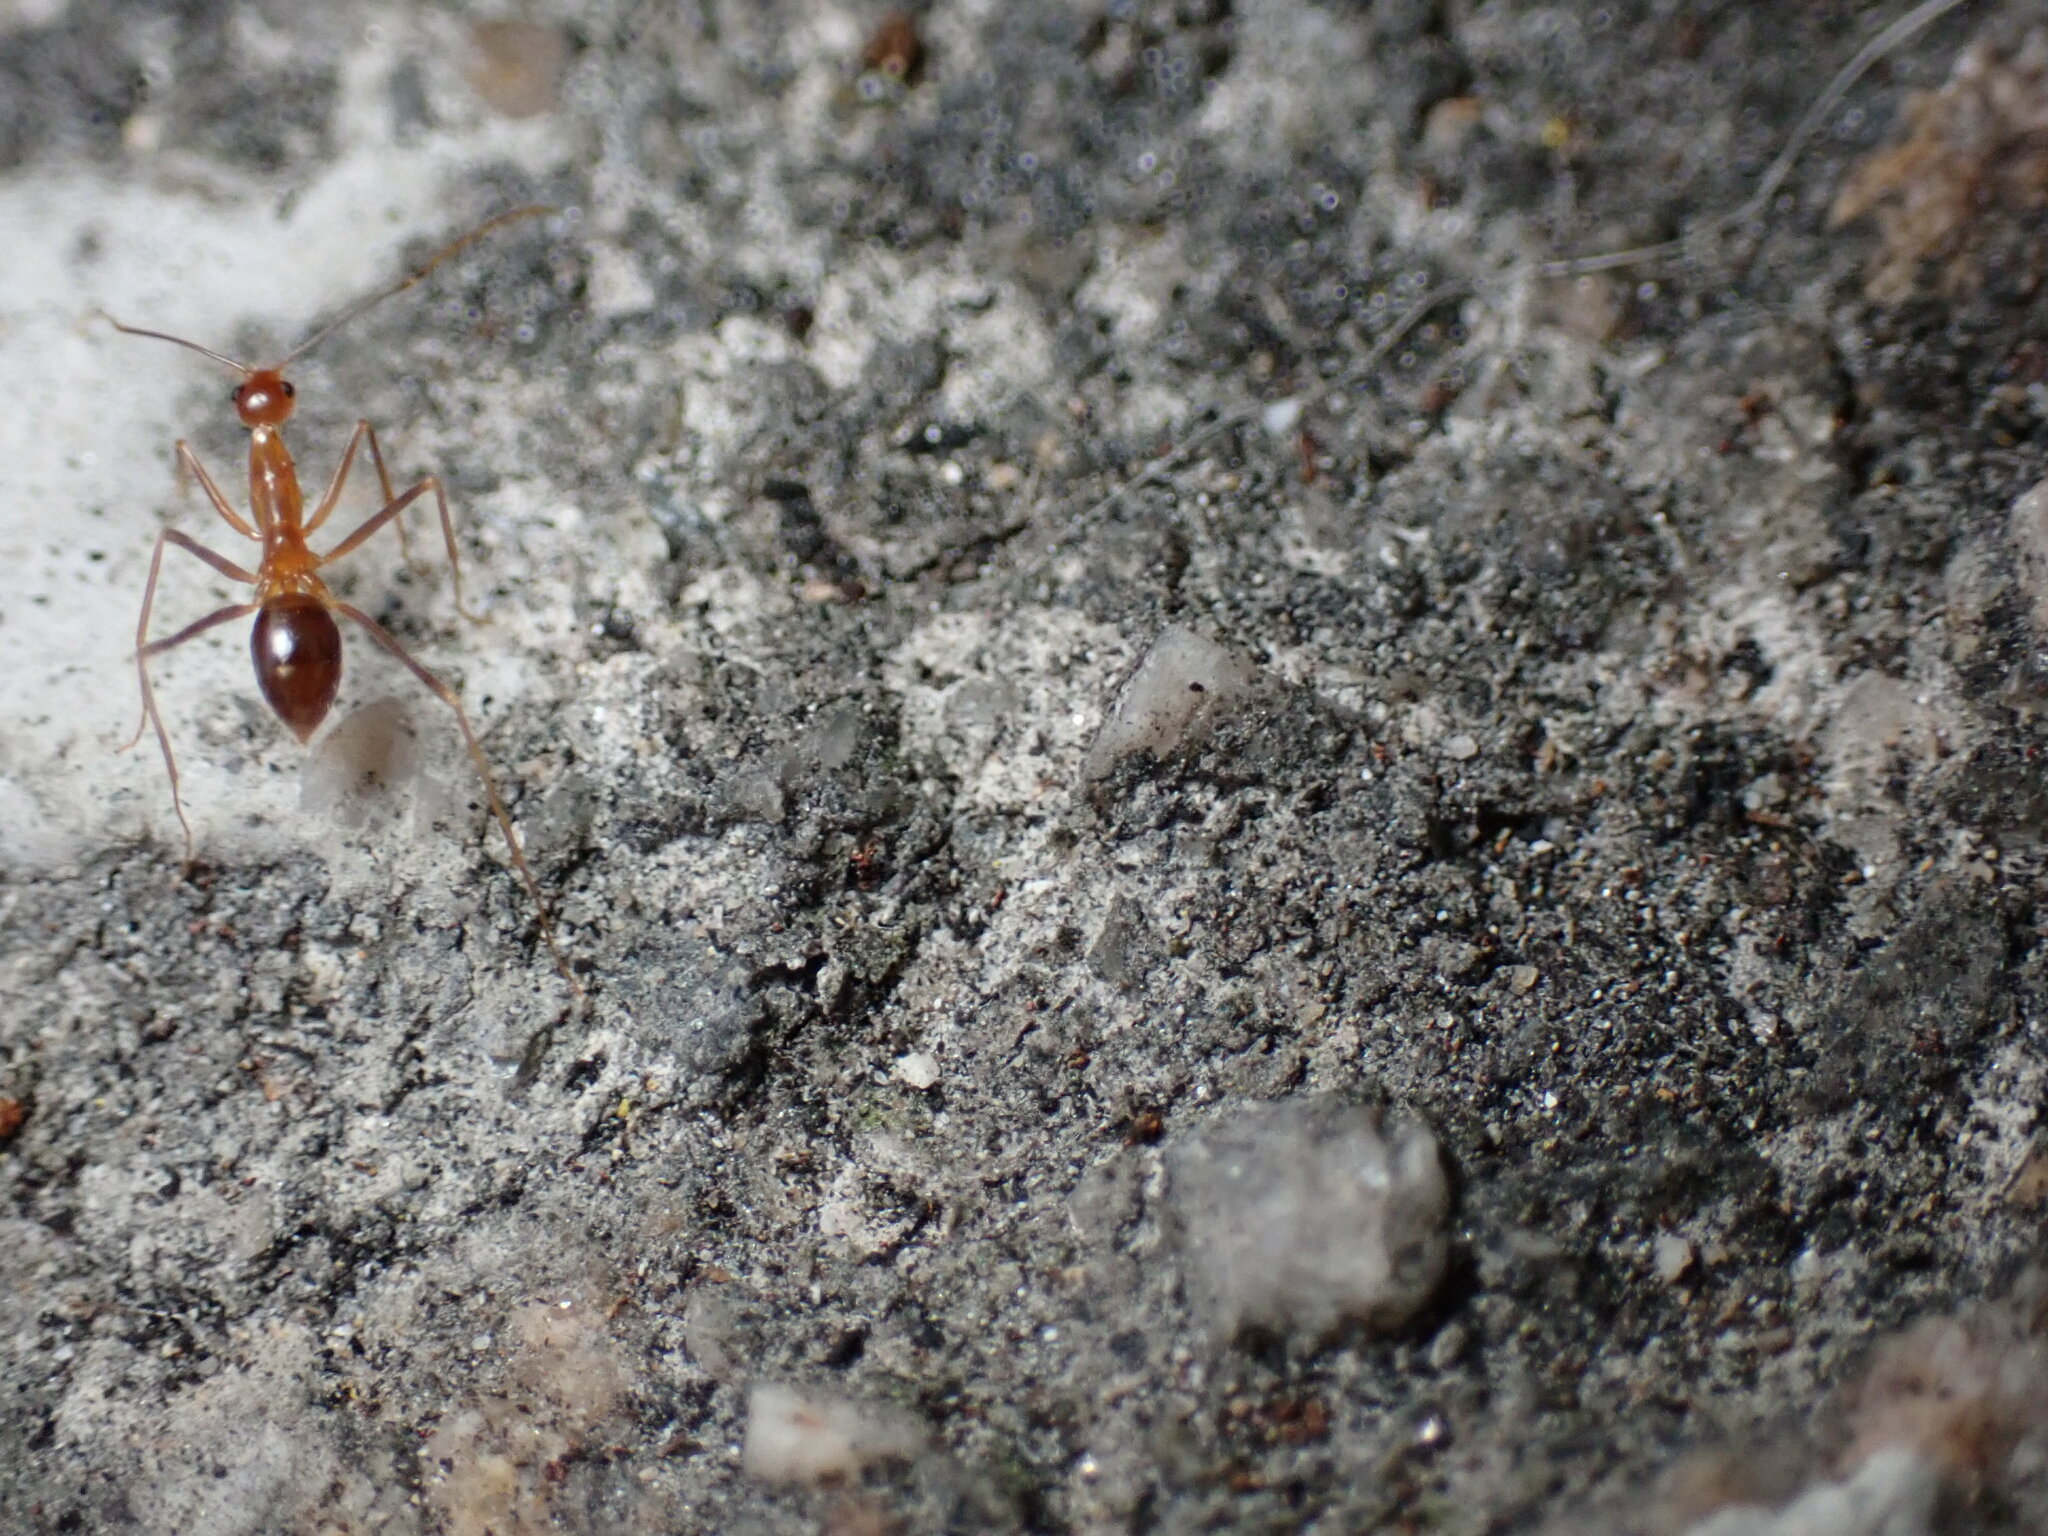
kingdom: Animalia
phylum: Arthropoda
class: Insecta
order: Hymenoptera
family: Formicidae
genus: Anoplolepis
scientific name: Anoplolepis gracilipes
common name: Ant
